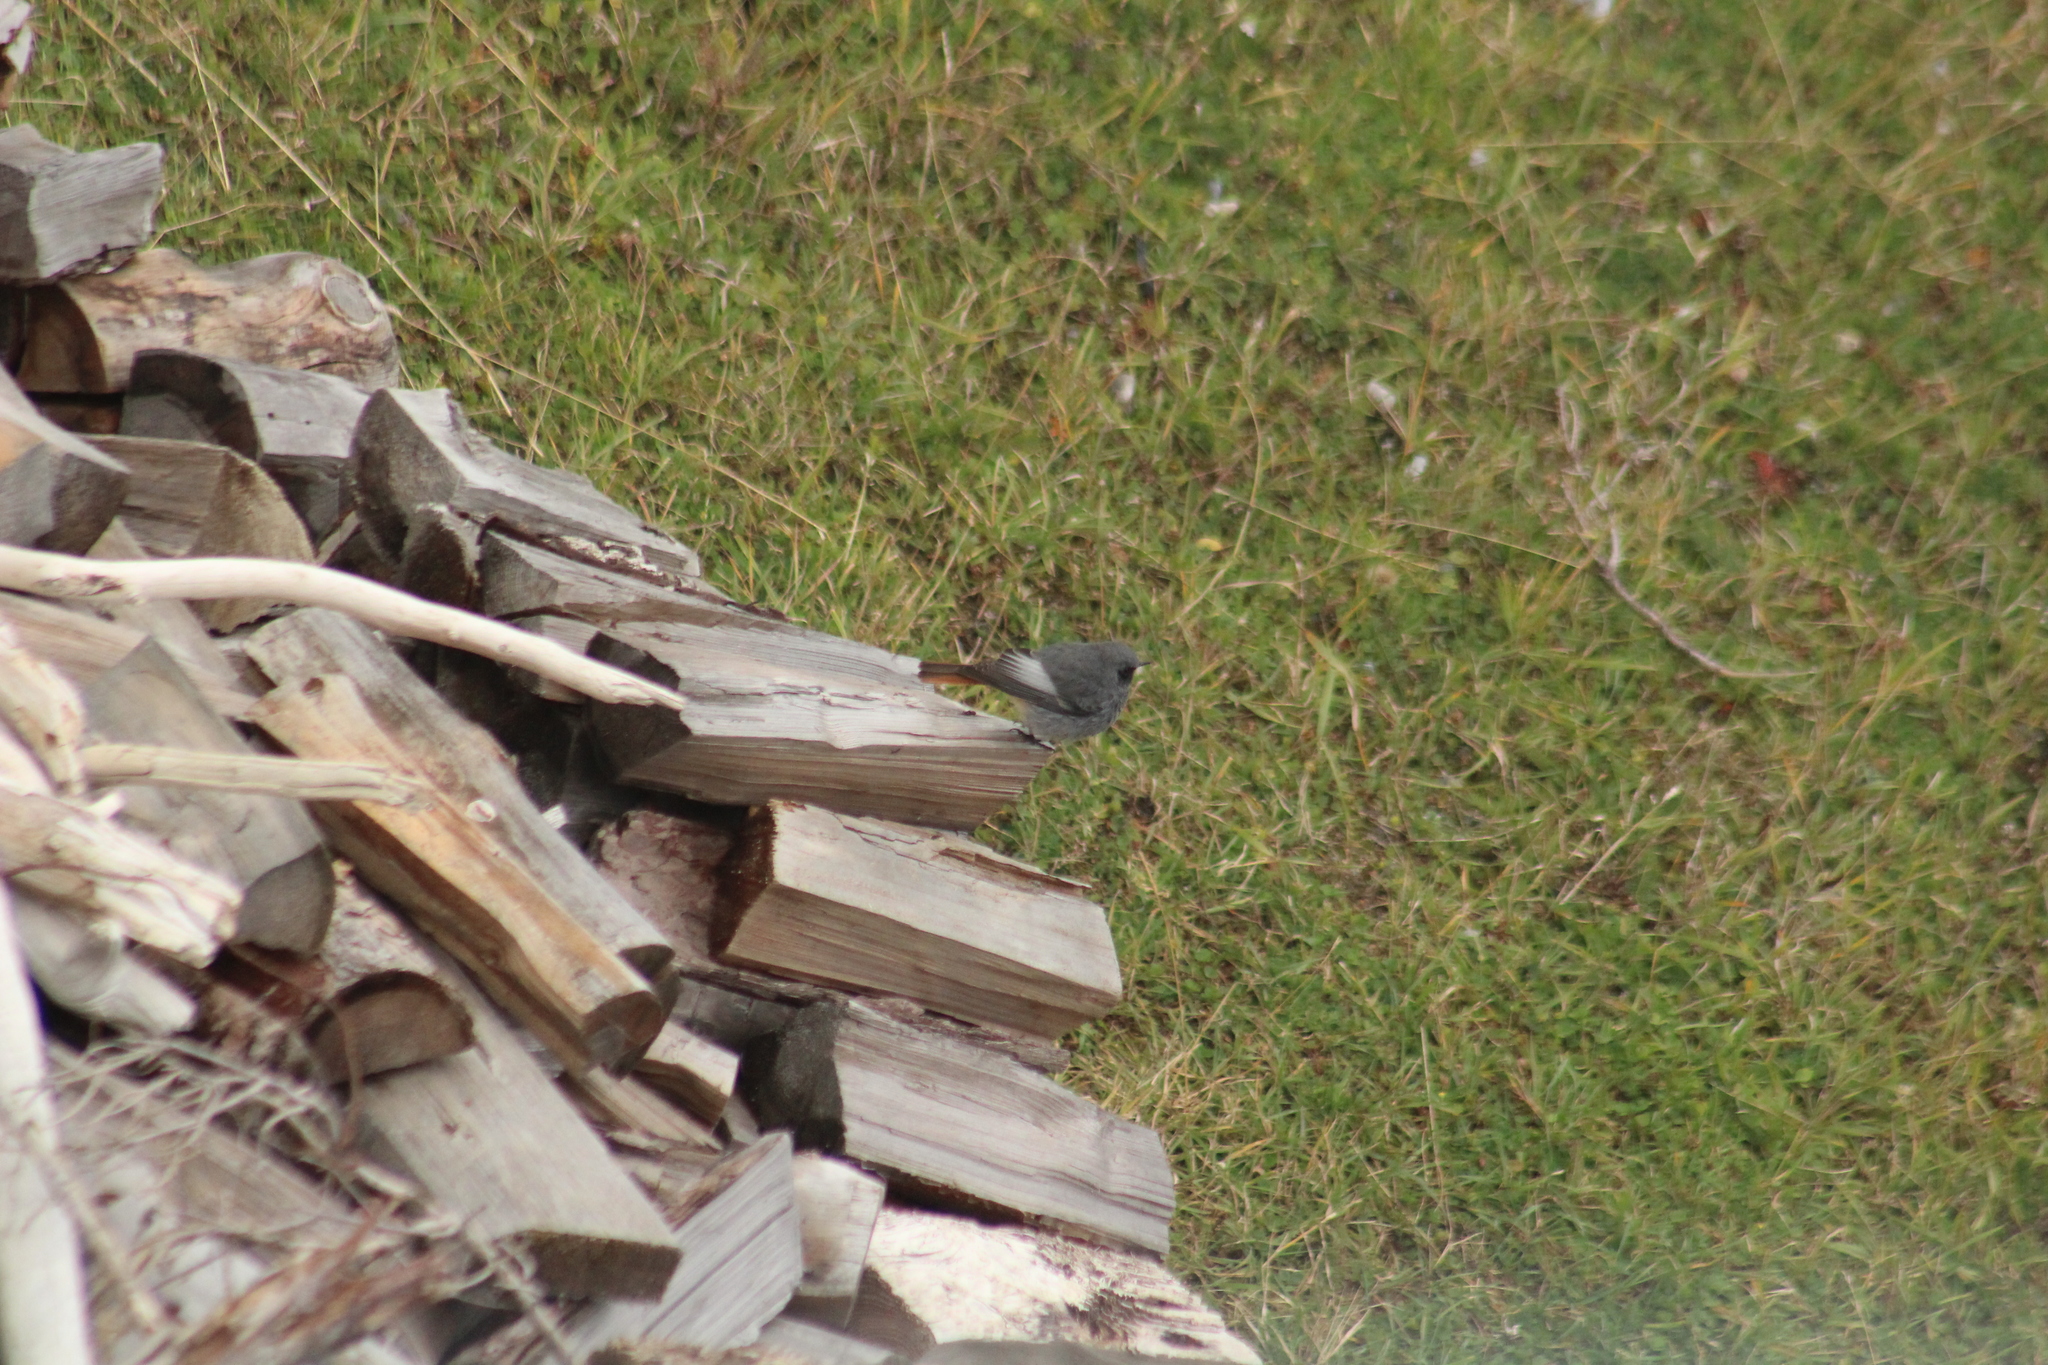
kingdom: Animalia
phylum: Chordata
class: Aves
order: Passeriformes
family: Muscicapidae
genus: Phoenicurus
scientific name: Phoenicurus ochruros
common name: Black redstart
